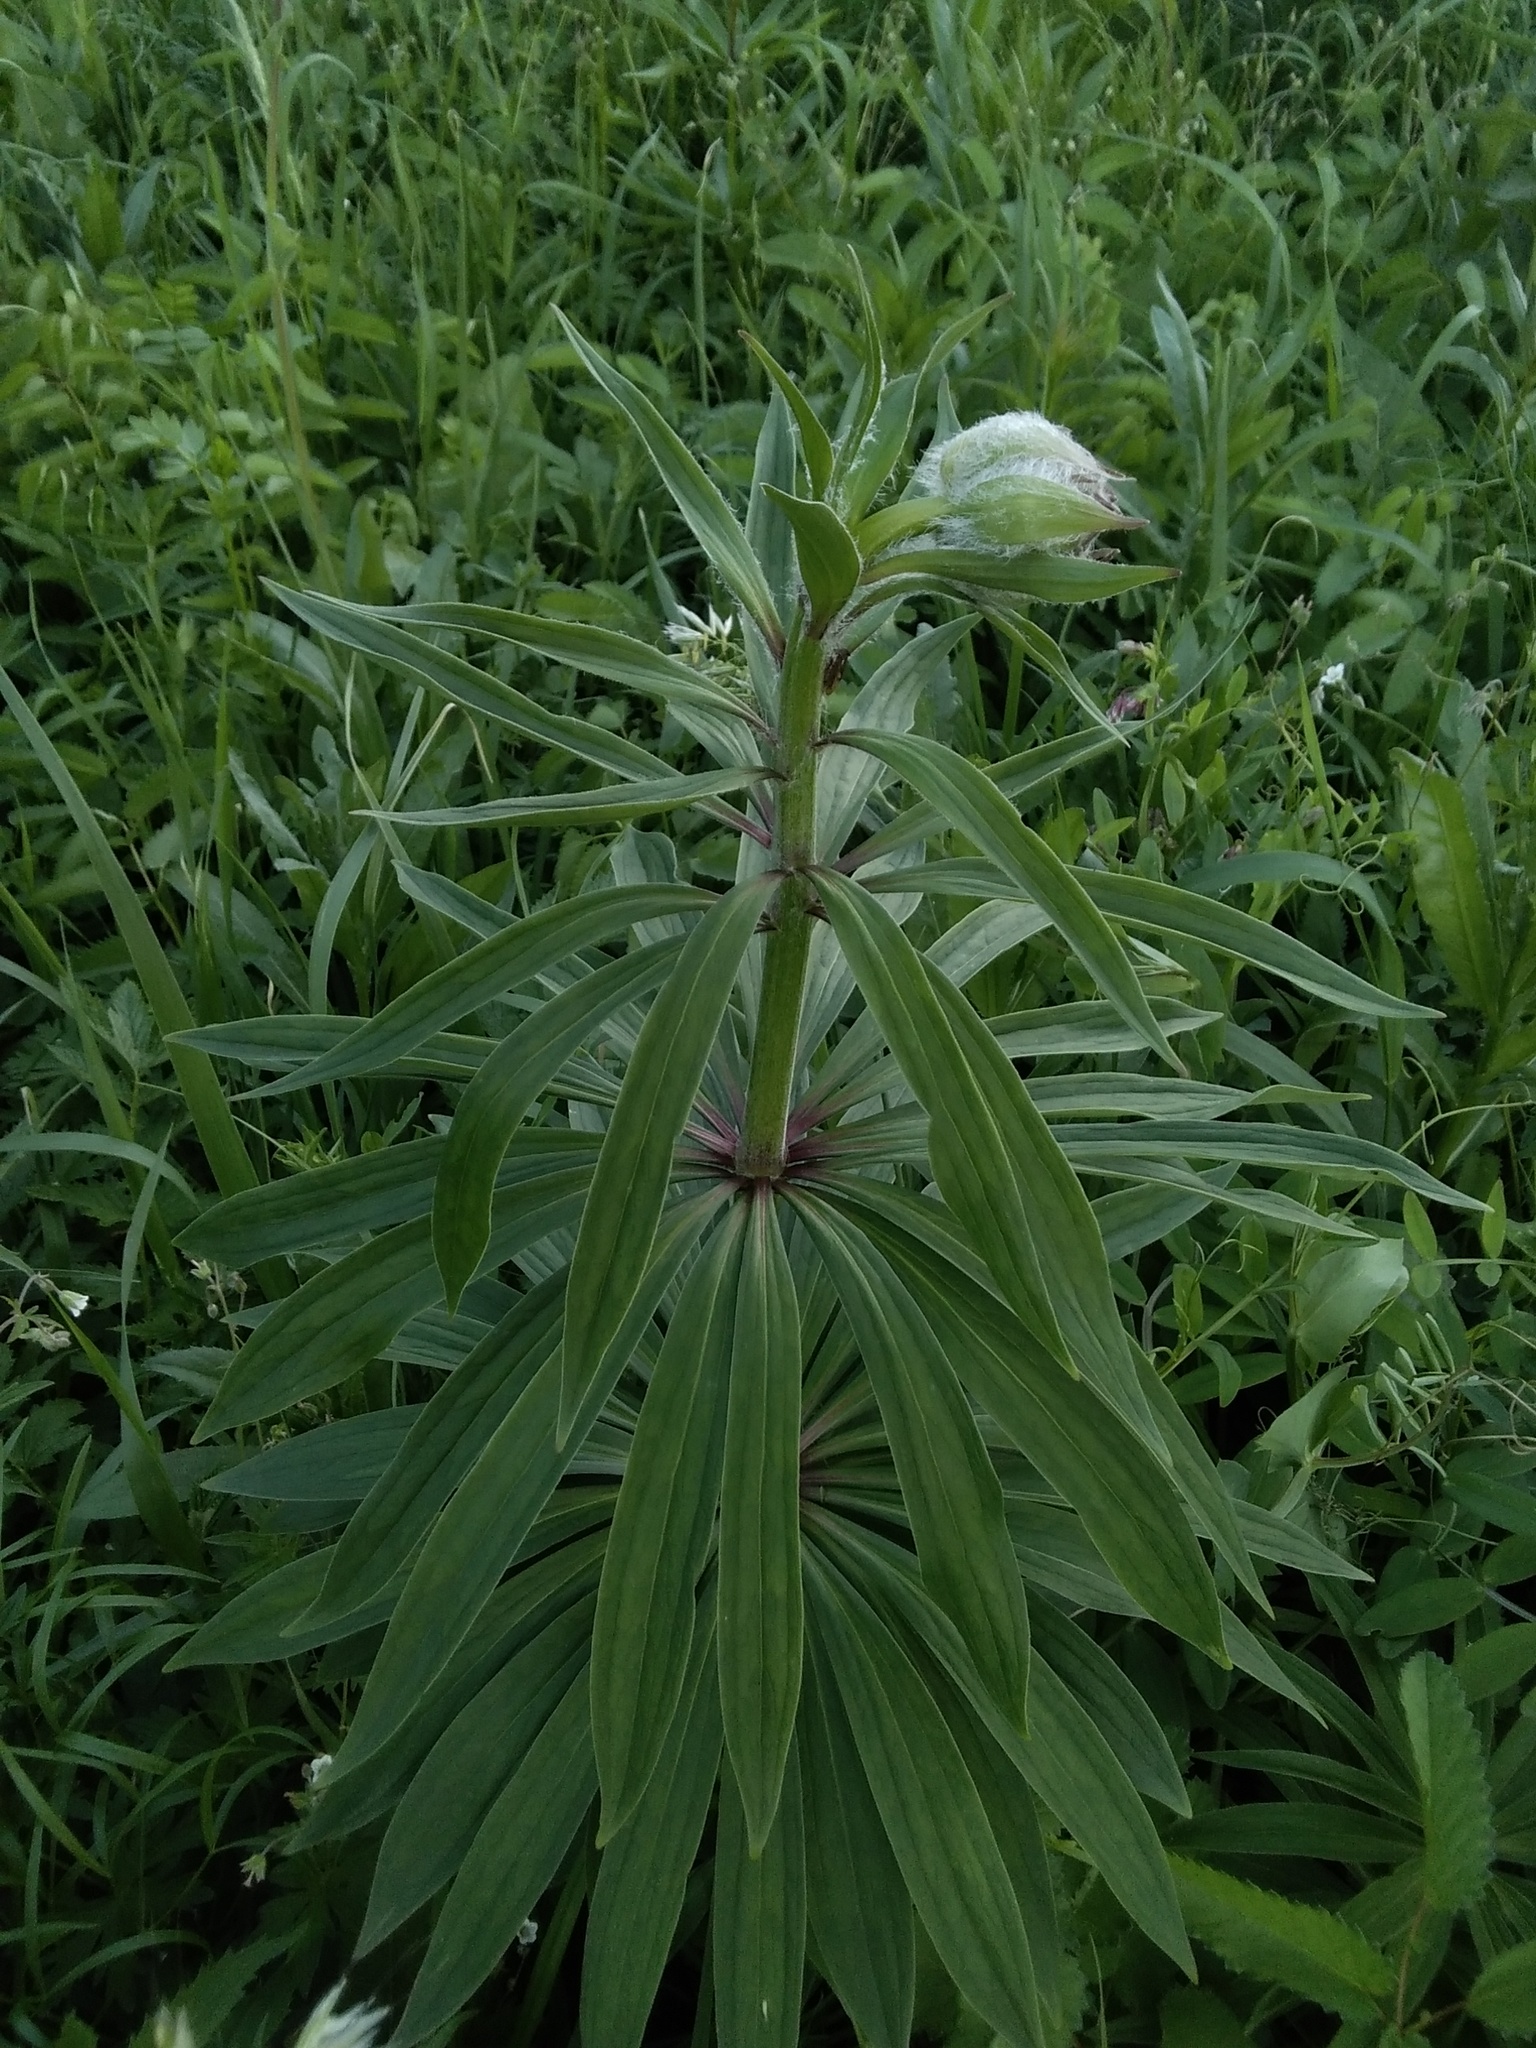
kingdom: Plantae
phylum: Tracheophyta
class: Liliopsida
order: Liliales
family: Liliaceae
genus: Lilium
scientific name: Lilium martagon
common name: Martagon lily
